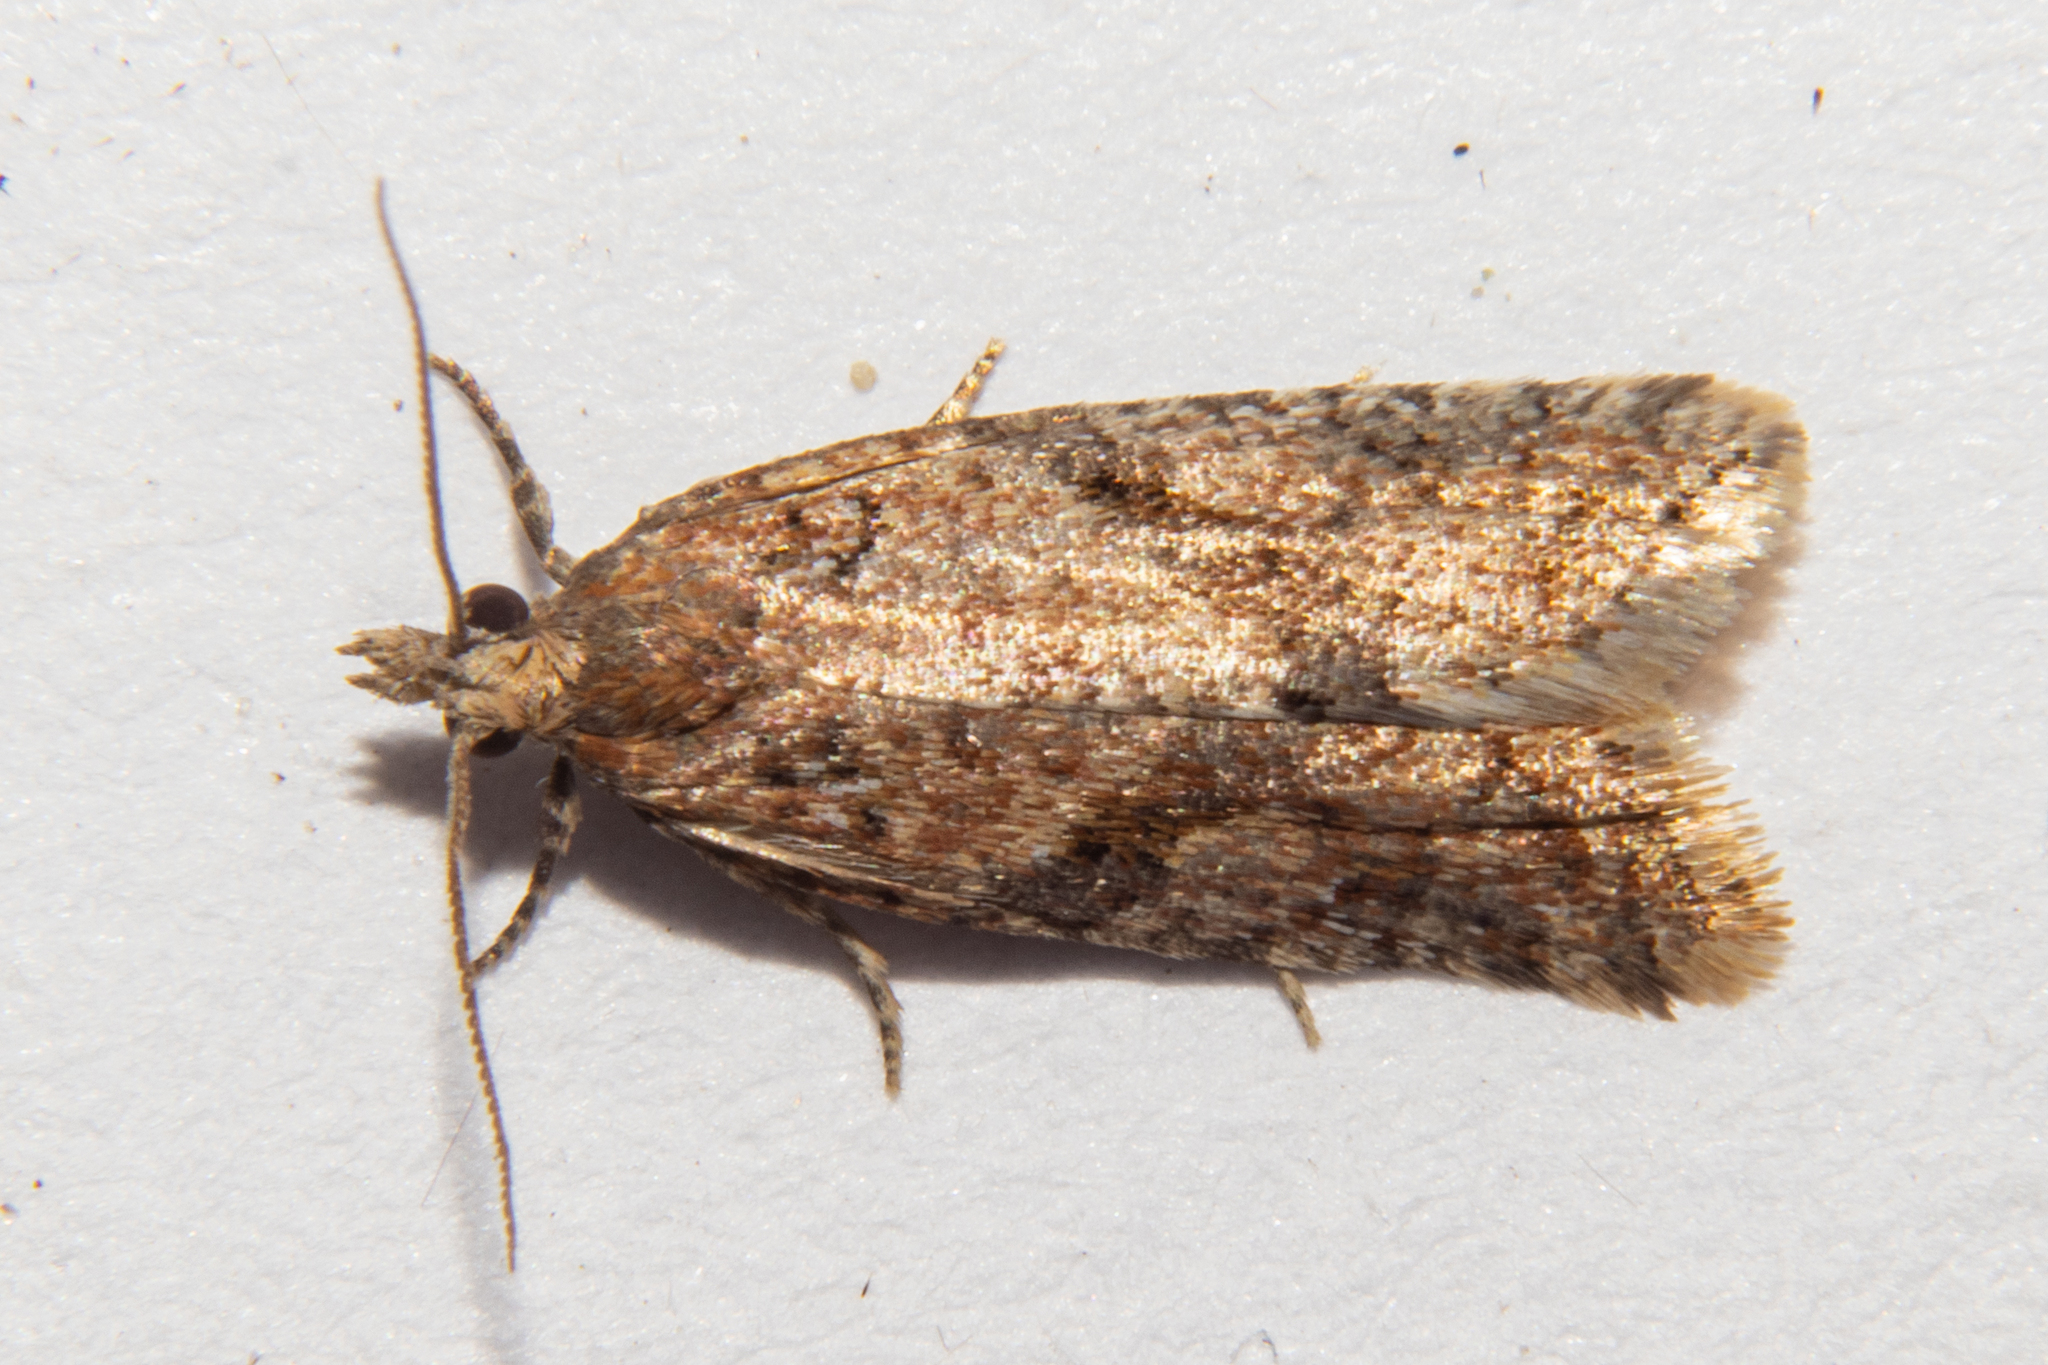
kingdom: Animalia
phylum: Arthropoda
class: Insecta
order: Lepidoptera
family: Tortricidae
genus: Capua
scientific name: Capua semiferana
